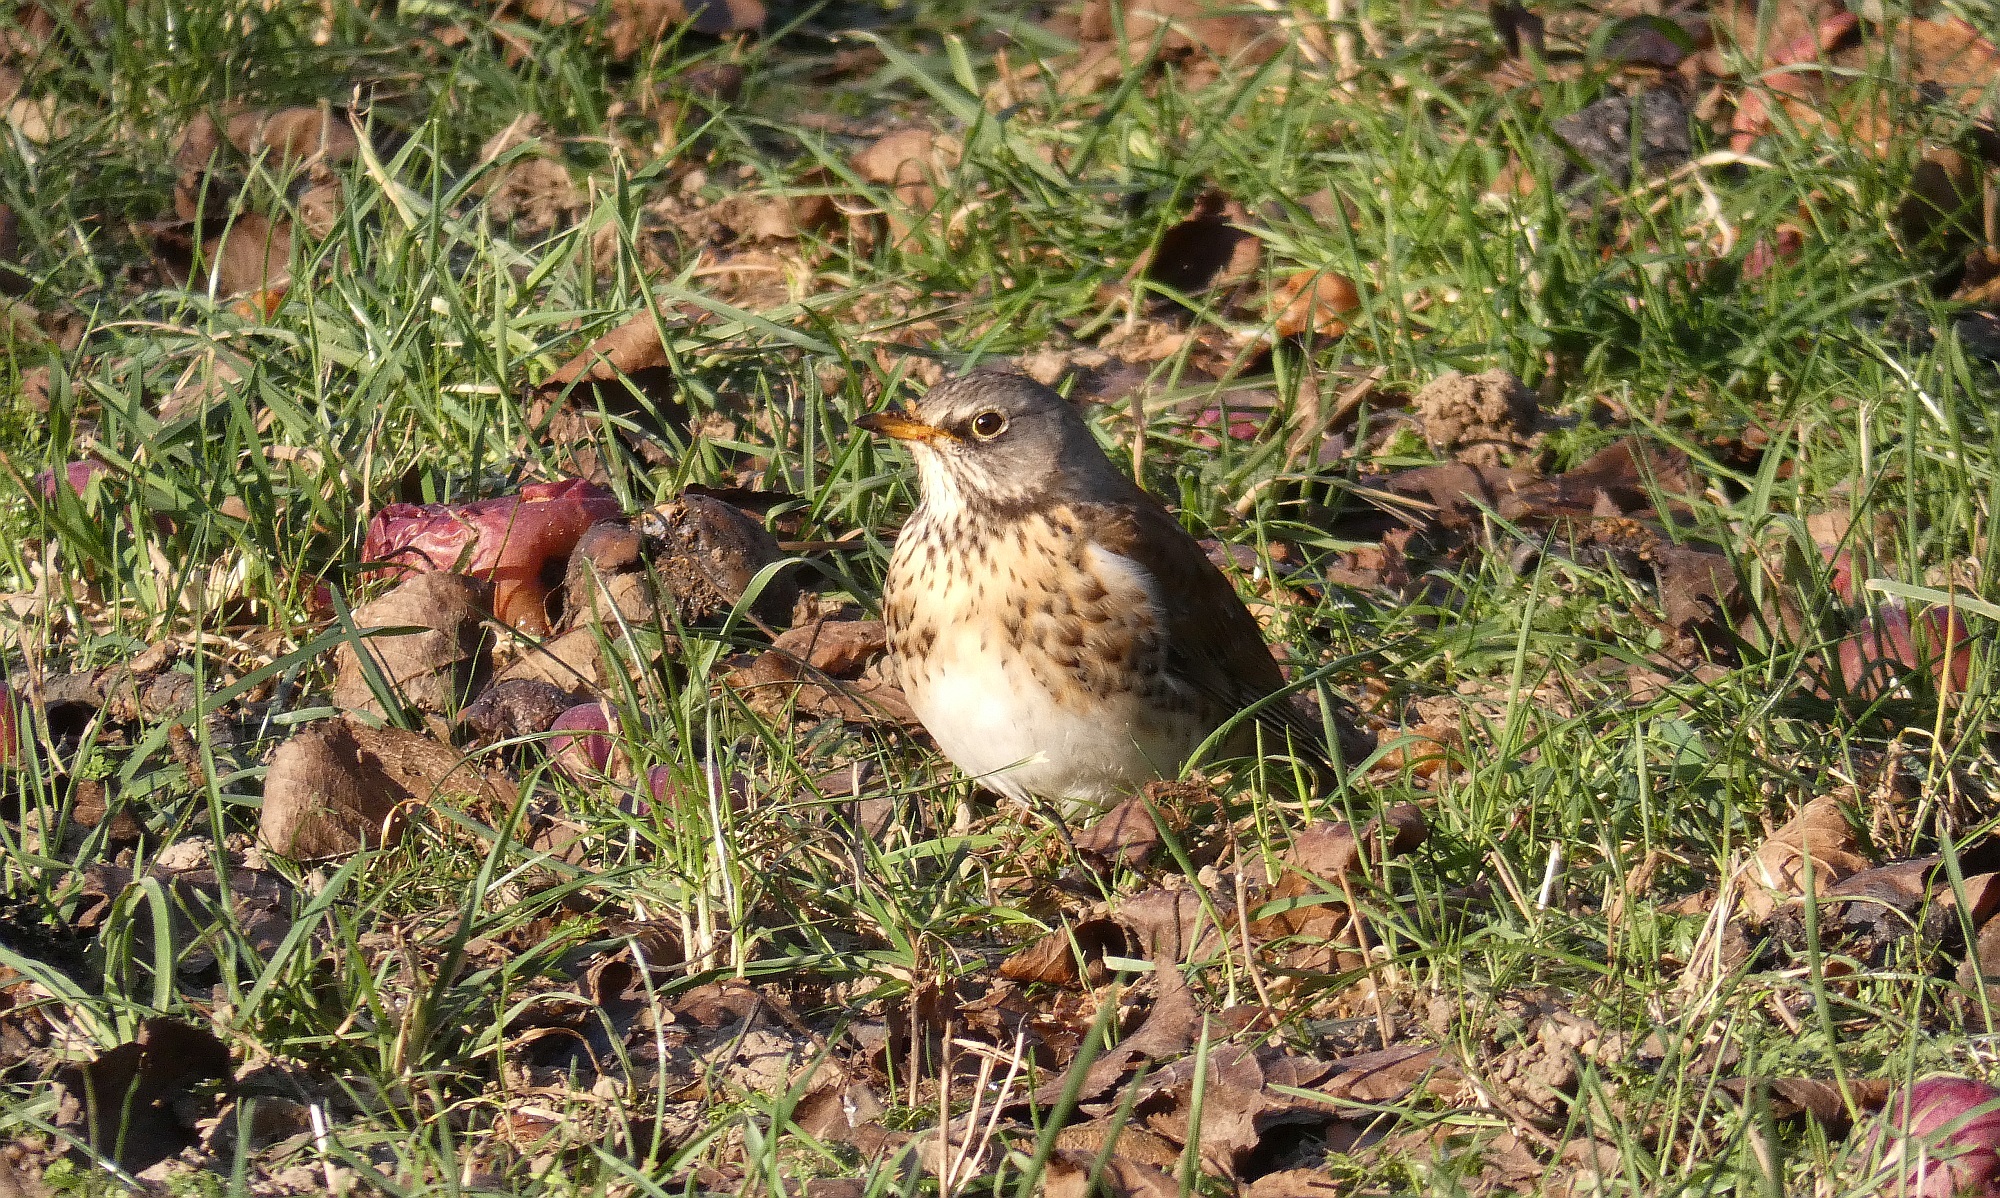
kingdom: Animalia
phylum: Chordata
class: Aves
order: Passeriformes
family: Turdidae
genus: Turdus
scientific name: Turdus pilaris
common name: Fieldfare
